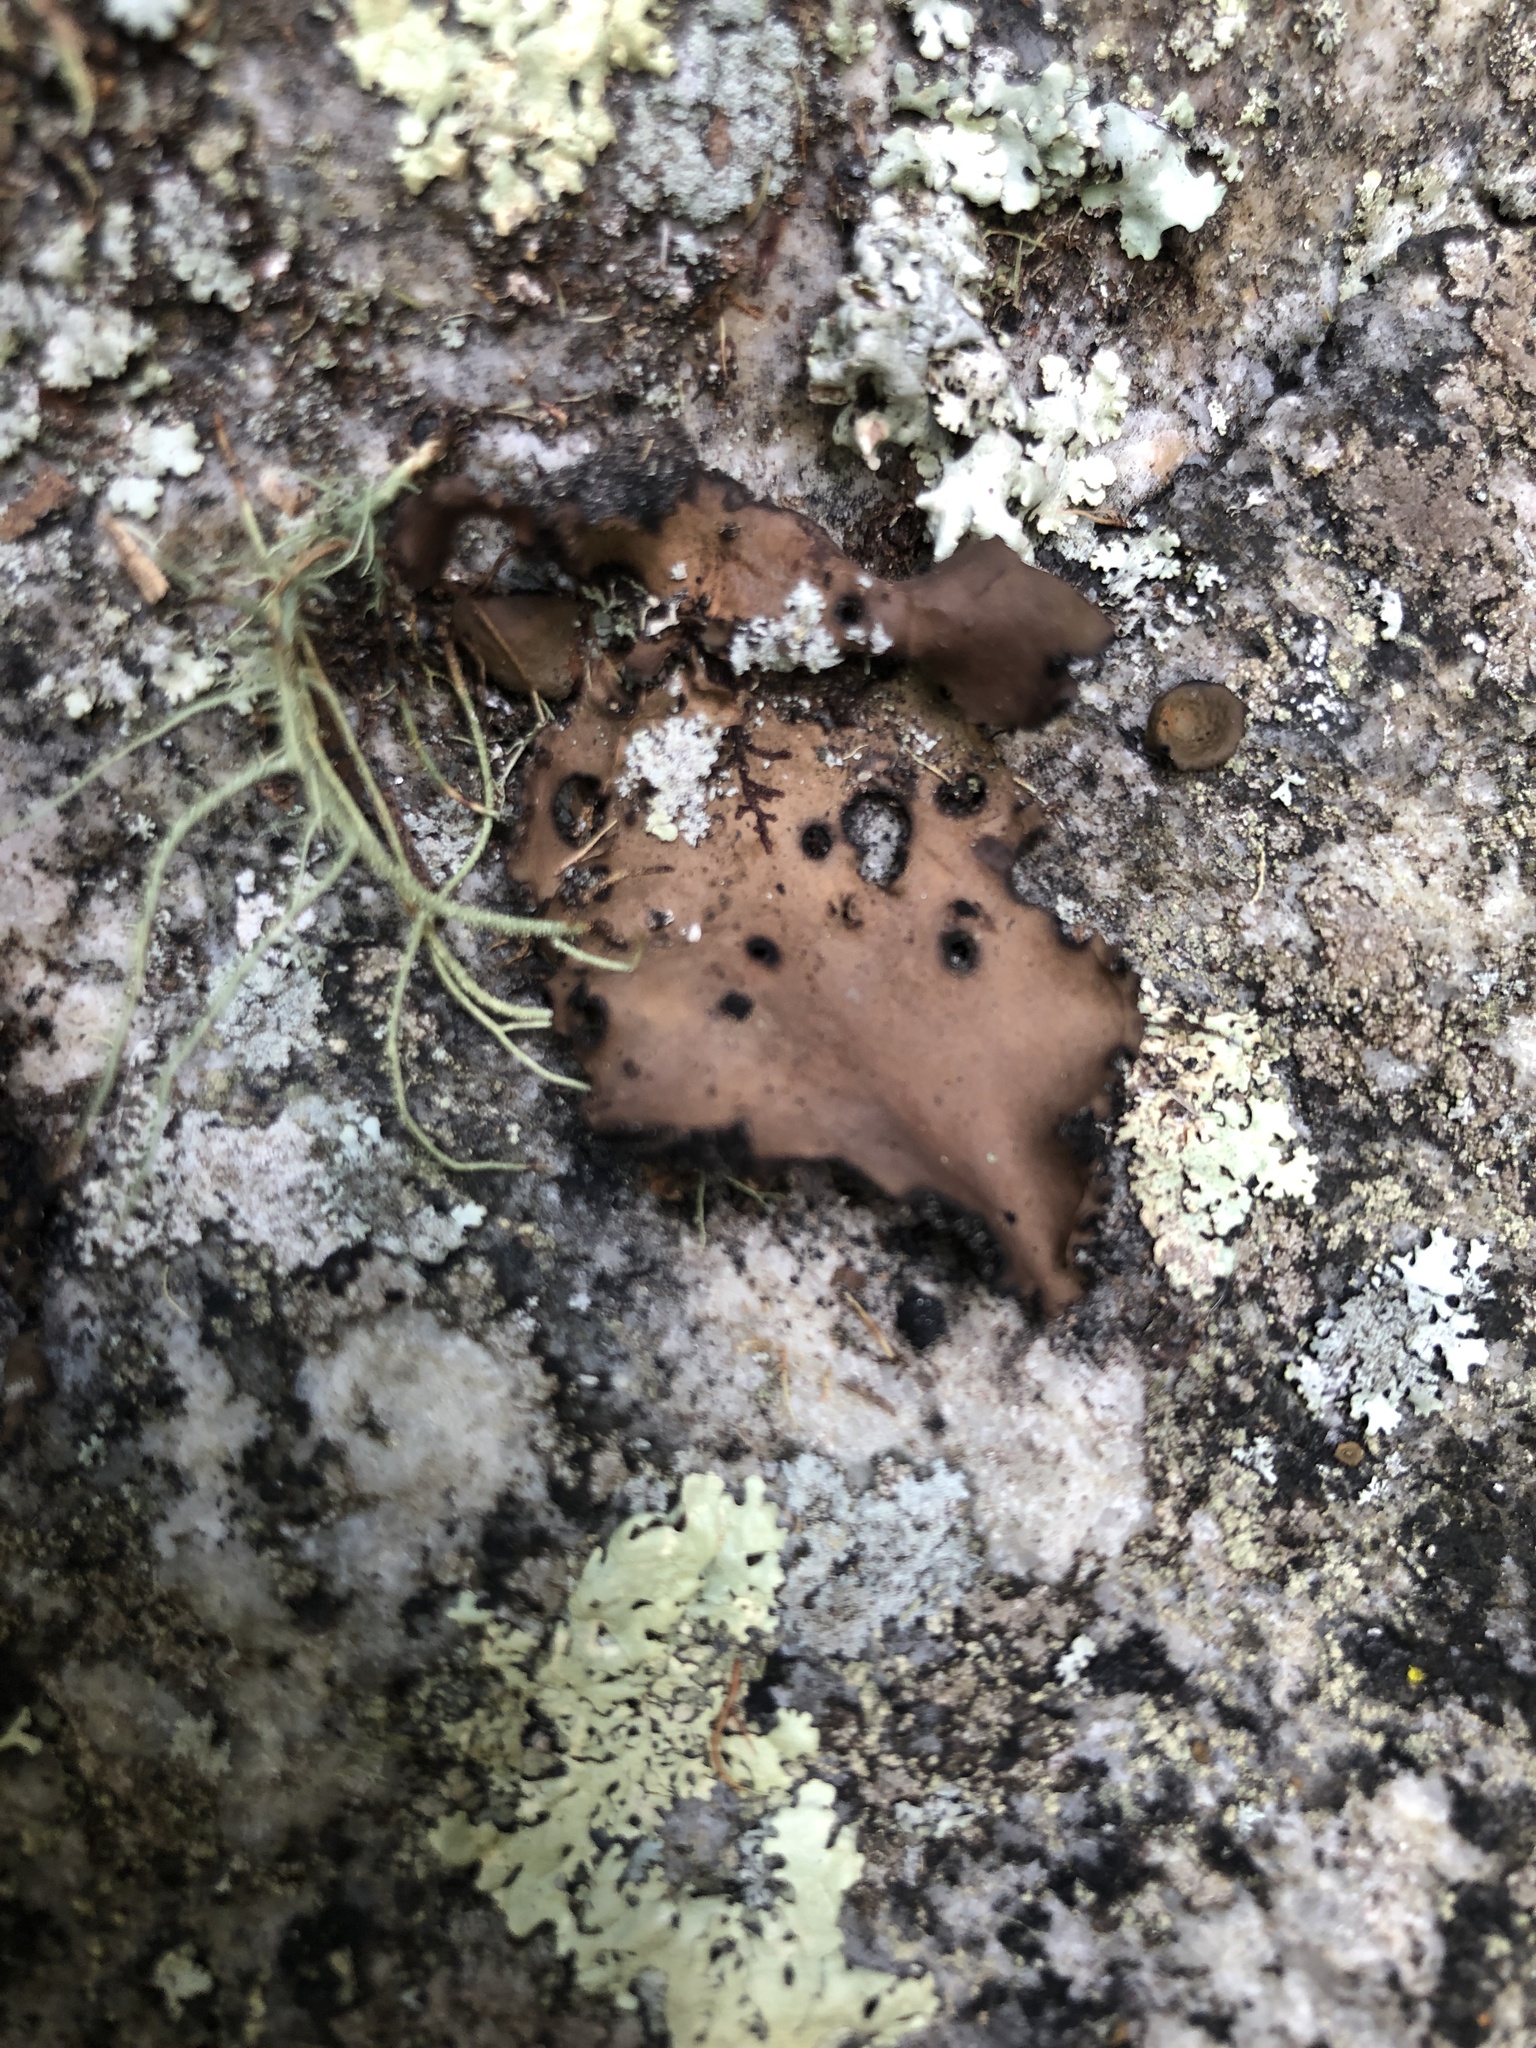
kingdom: Fungi
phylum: Ascomycota
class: Lecanoromycetes
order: Umbilicariales
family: Umbilicariaceae
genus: Lasallia
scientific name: Lasallia pensylvanica
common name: Blackened toadskin lichen
